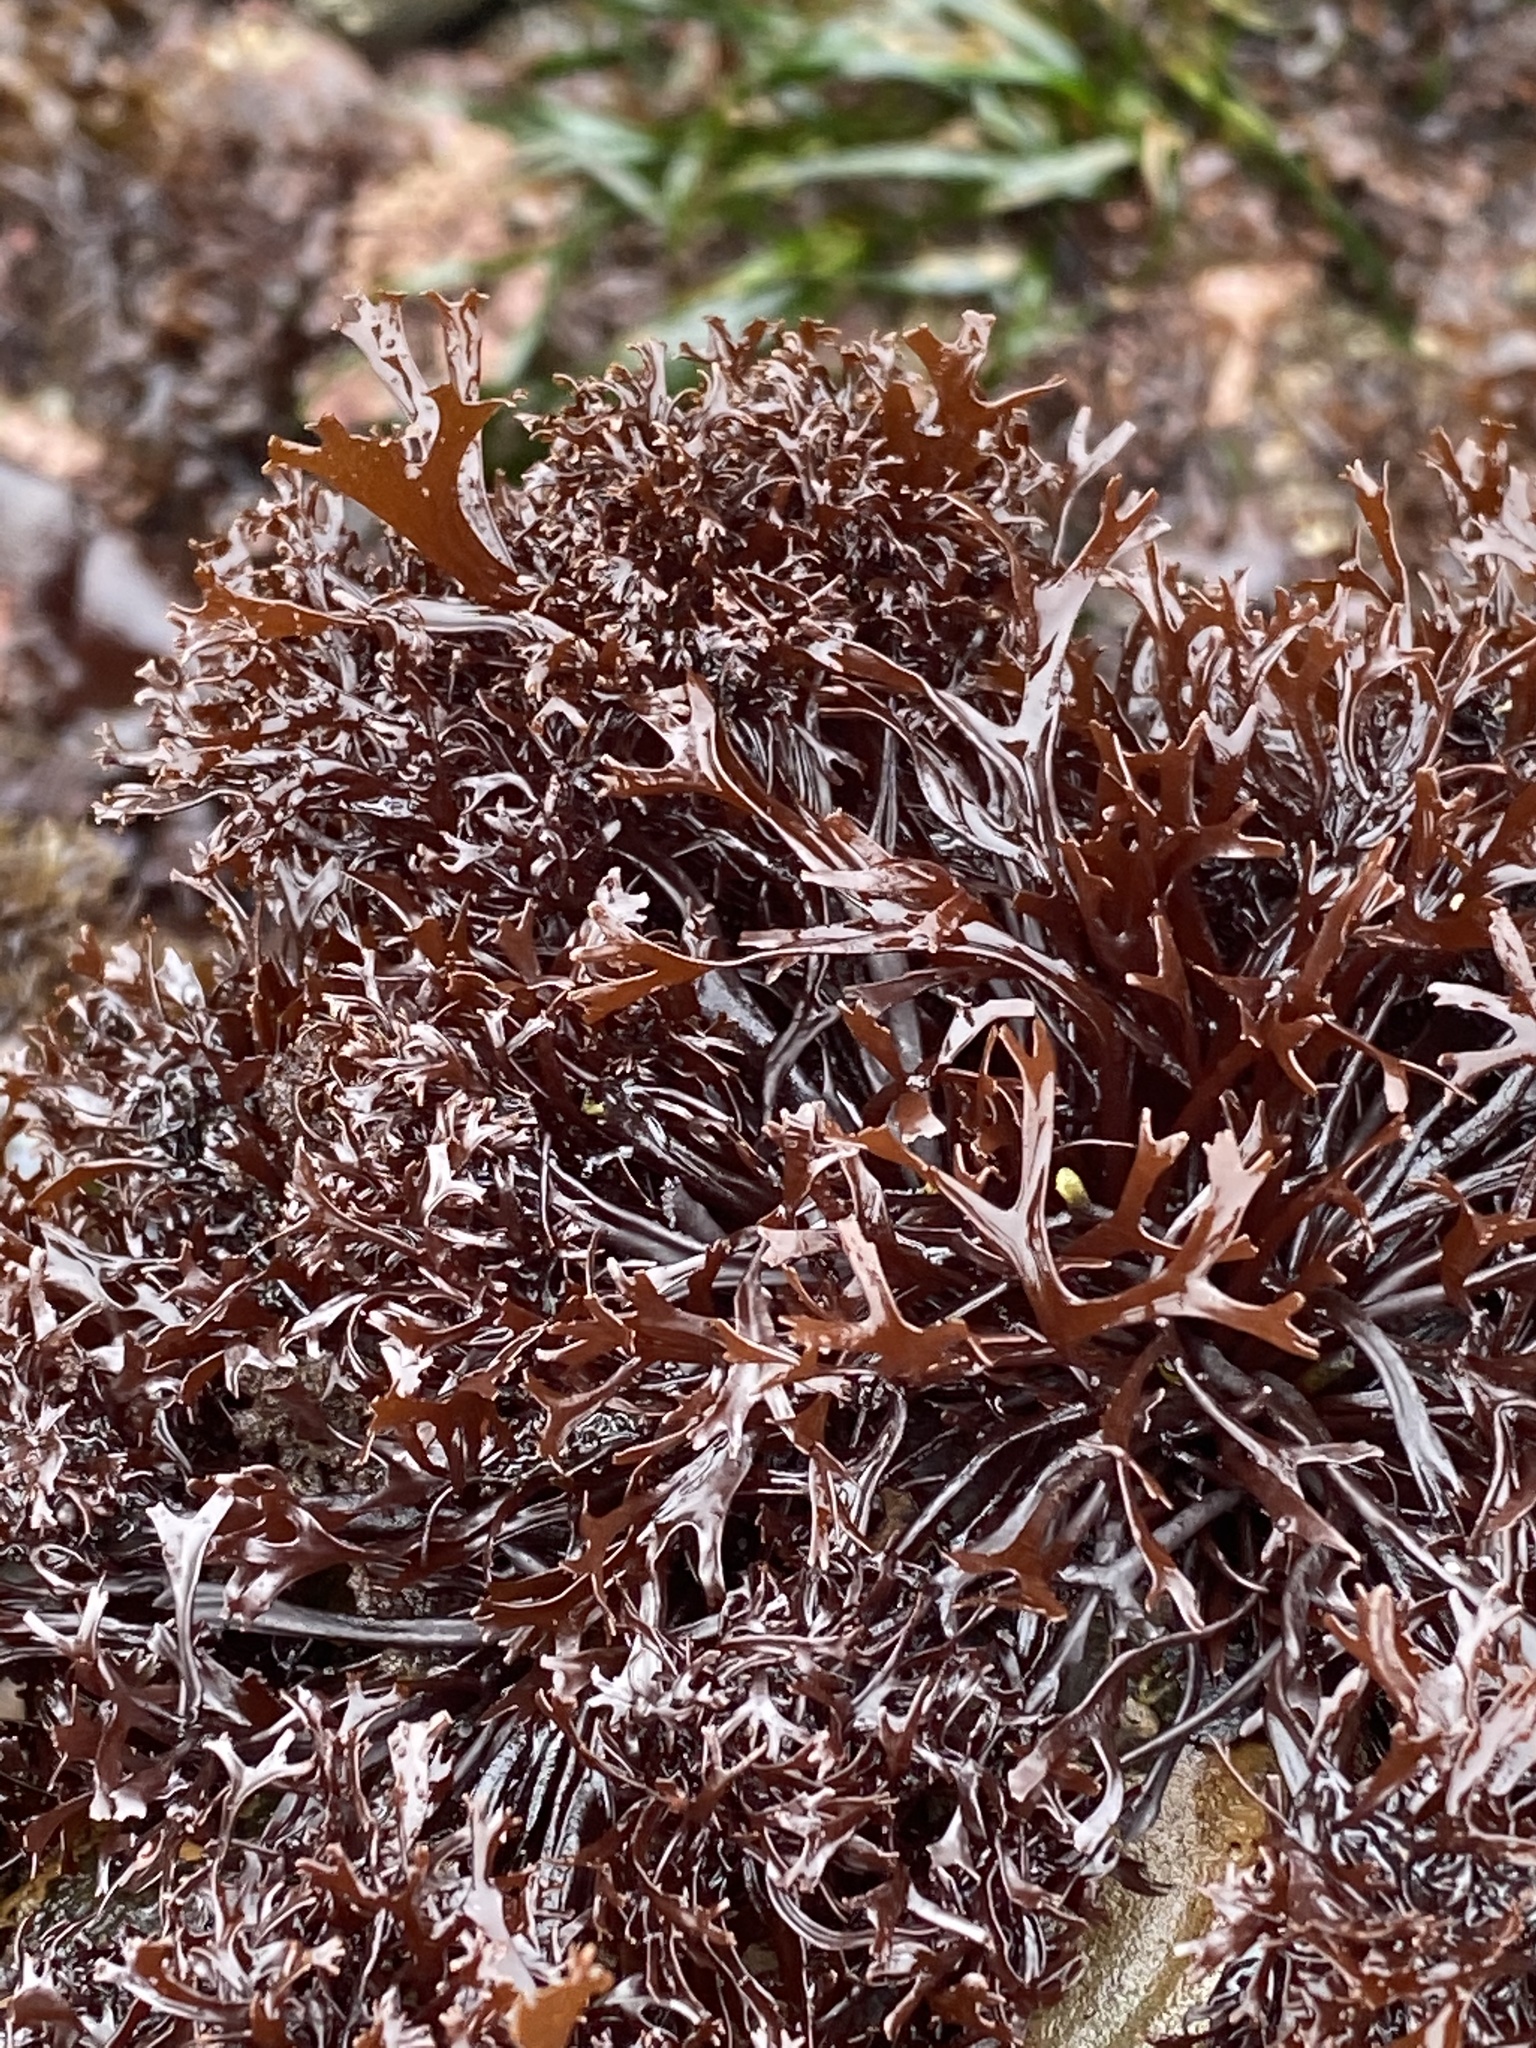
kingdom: Plantae
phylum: Rhodophyta
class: Florideophyceae
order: Gigartinales
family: Phyllophoraceae
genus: Mastocarpus
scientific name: Mastocarpus papillatus
